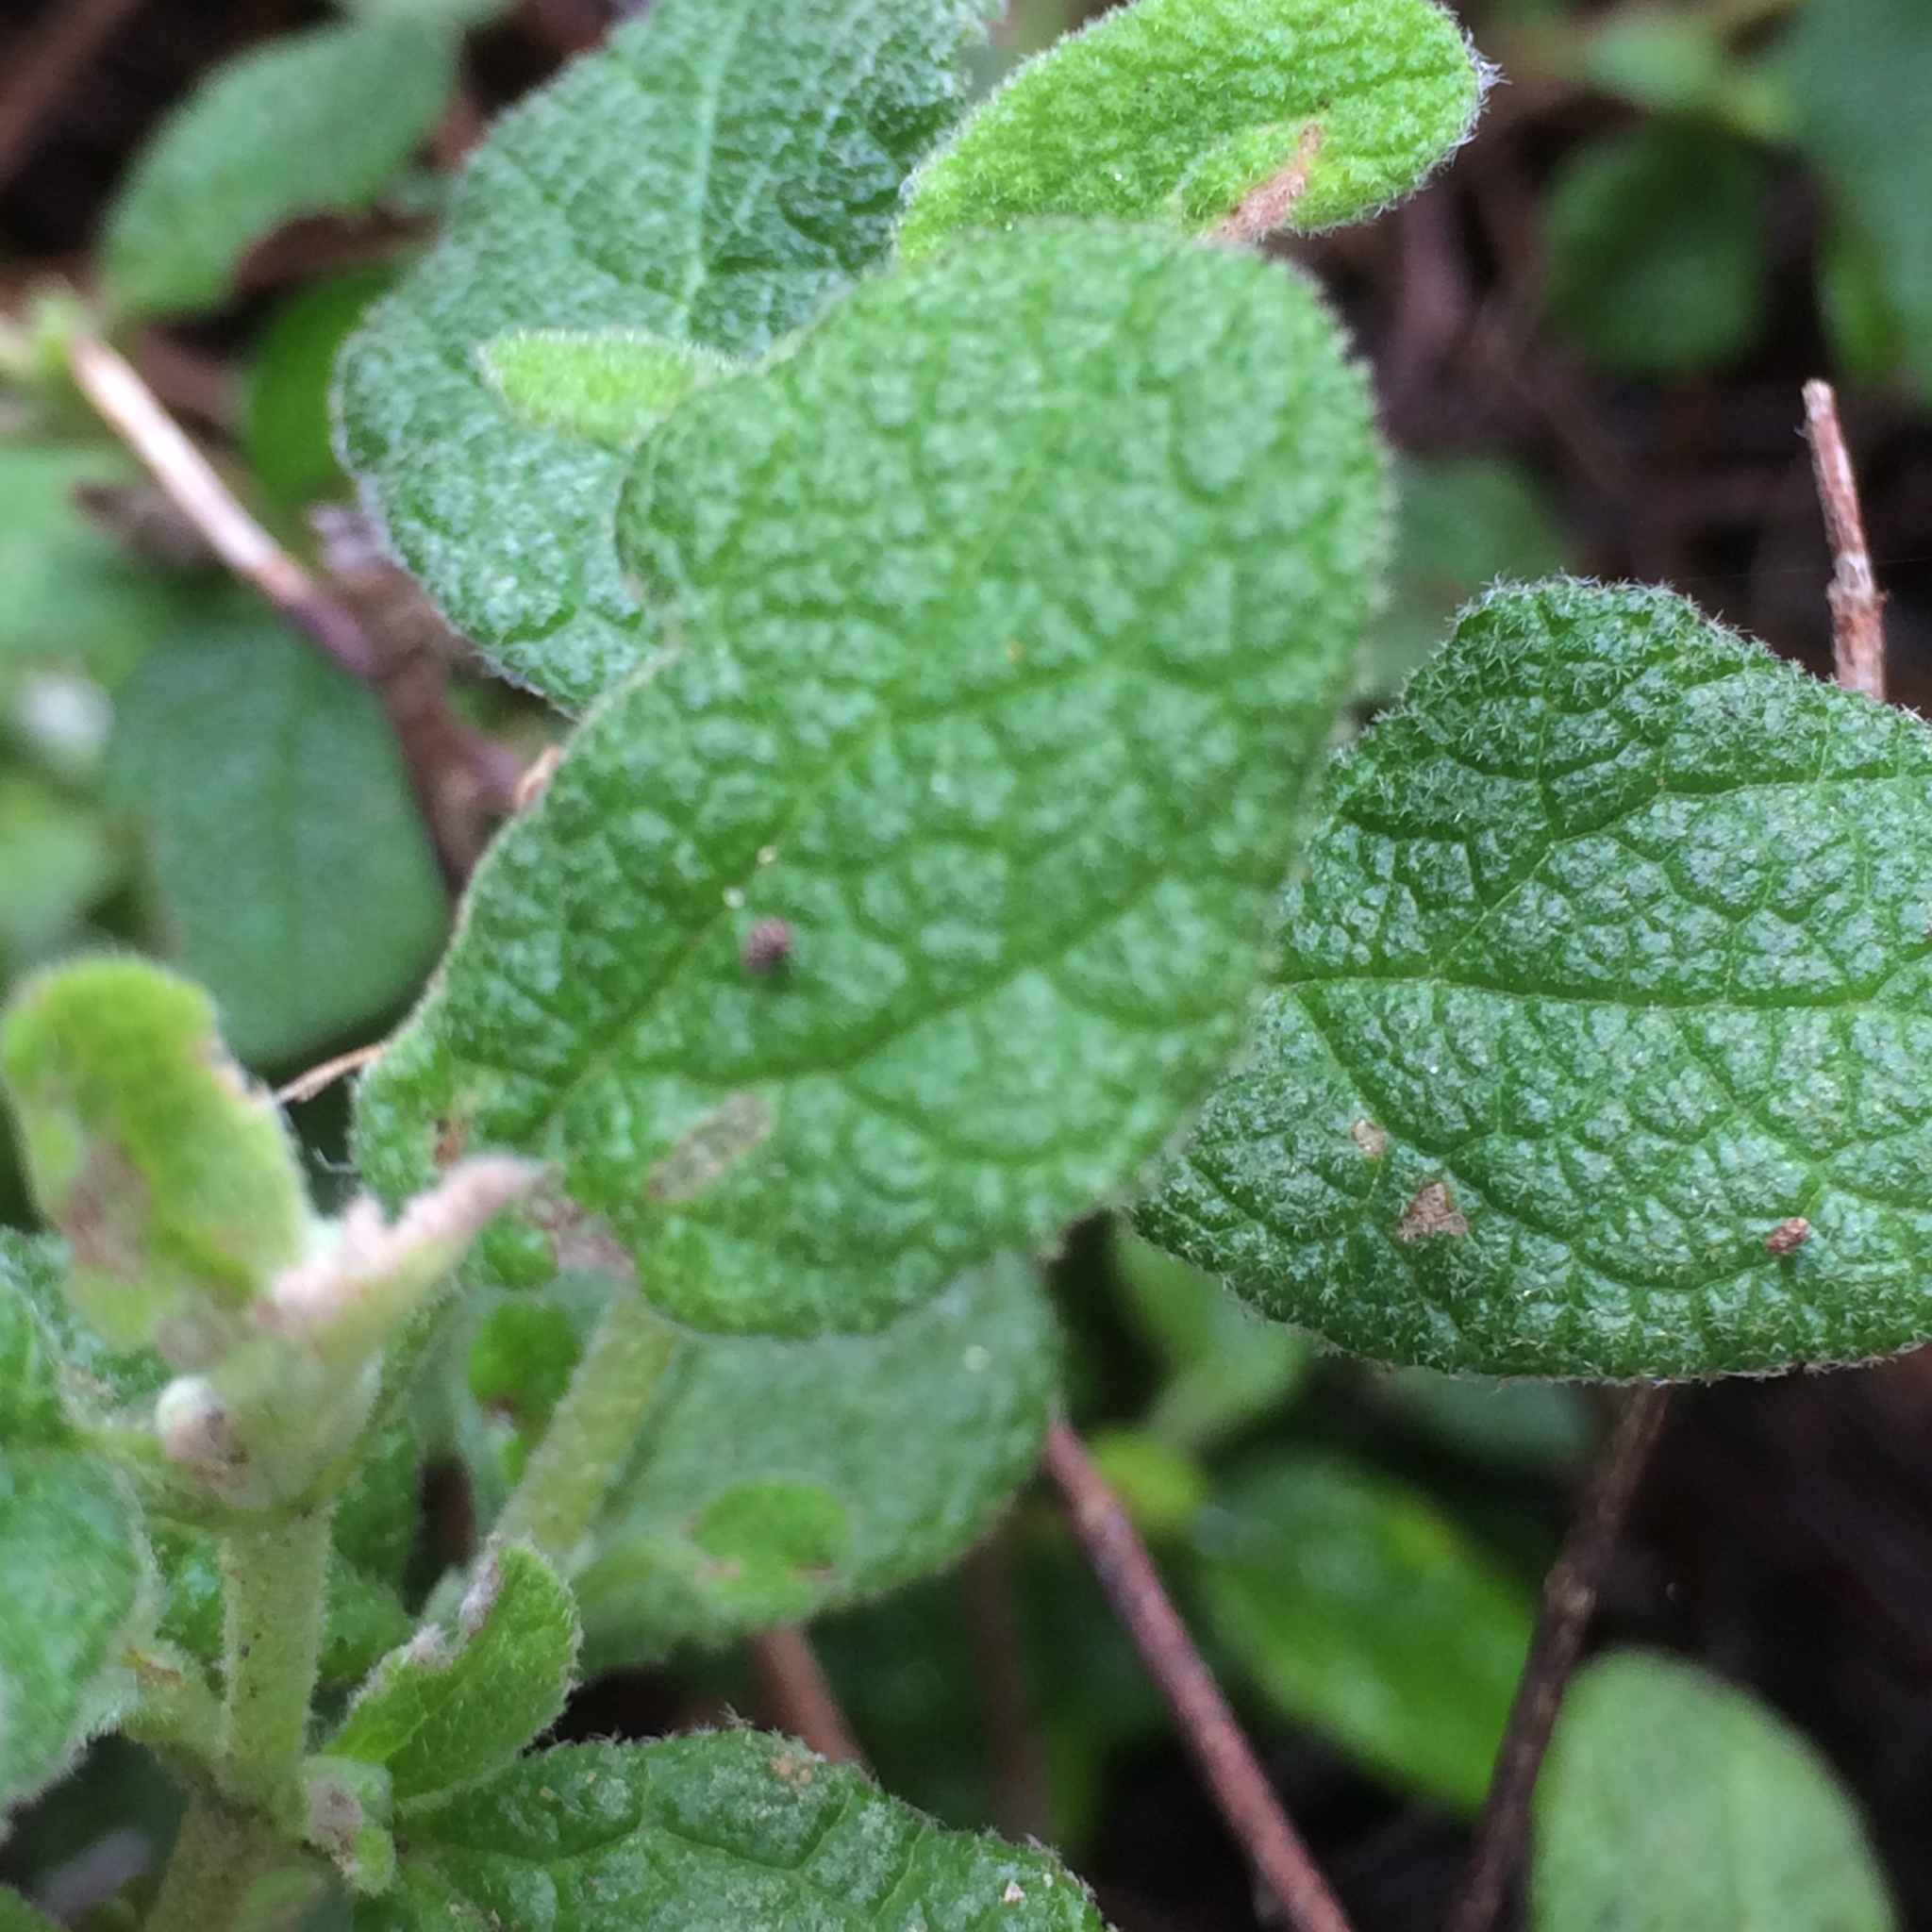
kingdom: Plantae
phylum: Tracheophyta
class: Magnoliopsida
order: Malvales
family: Cistaceae
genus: Cistus
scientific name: Cistus salviifolius
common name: Salvia cistus
